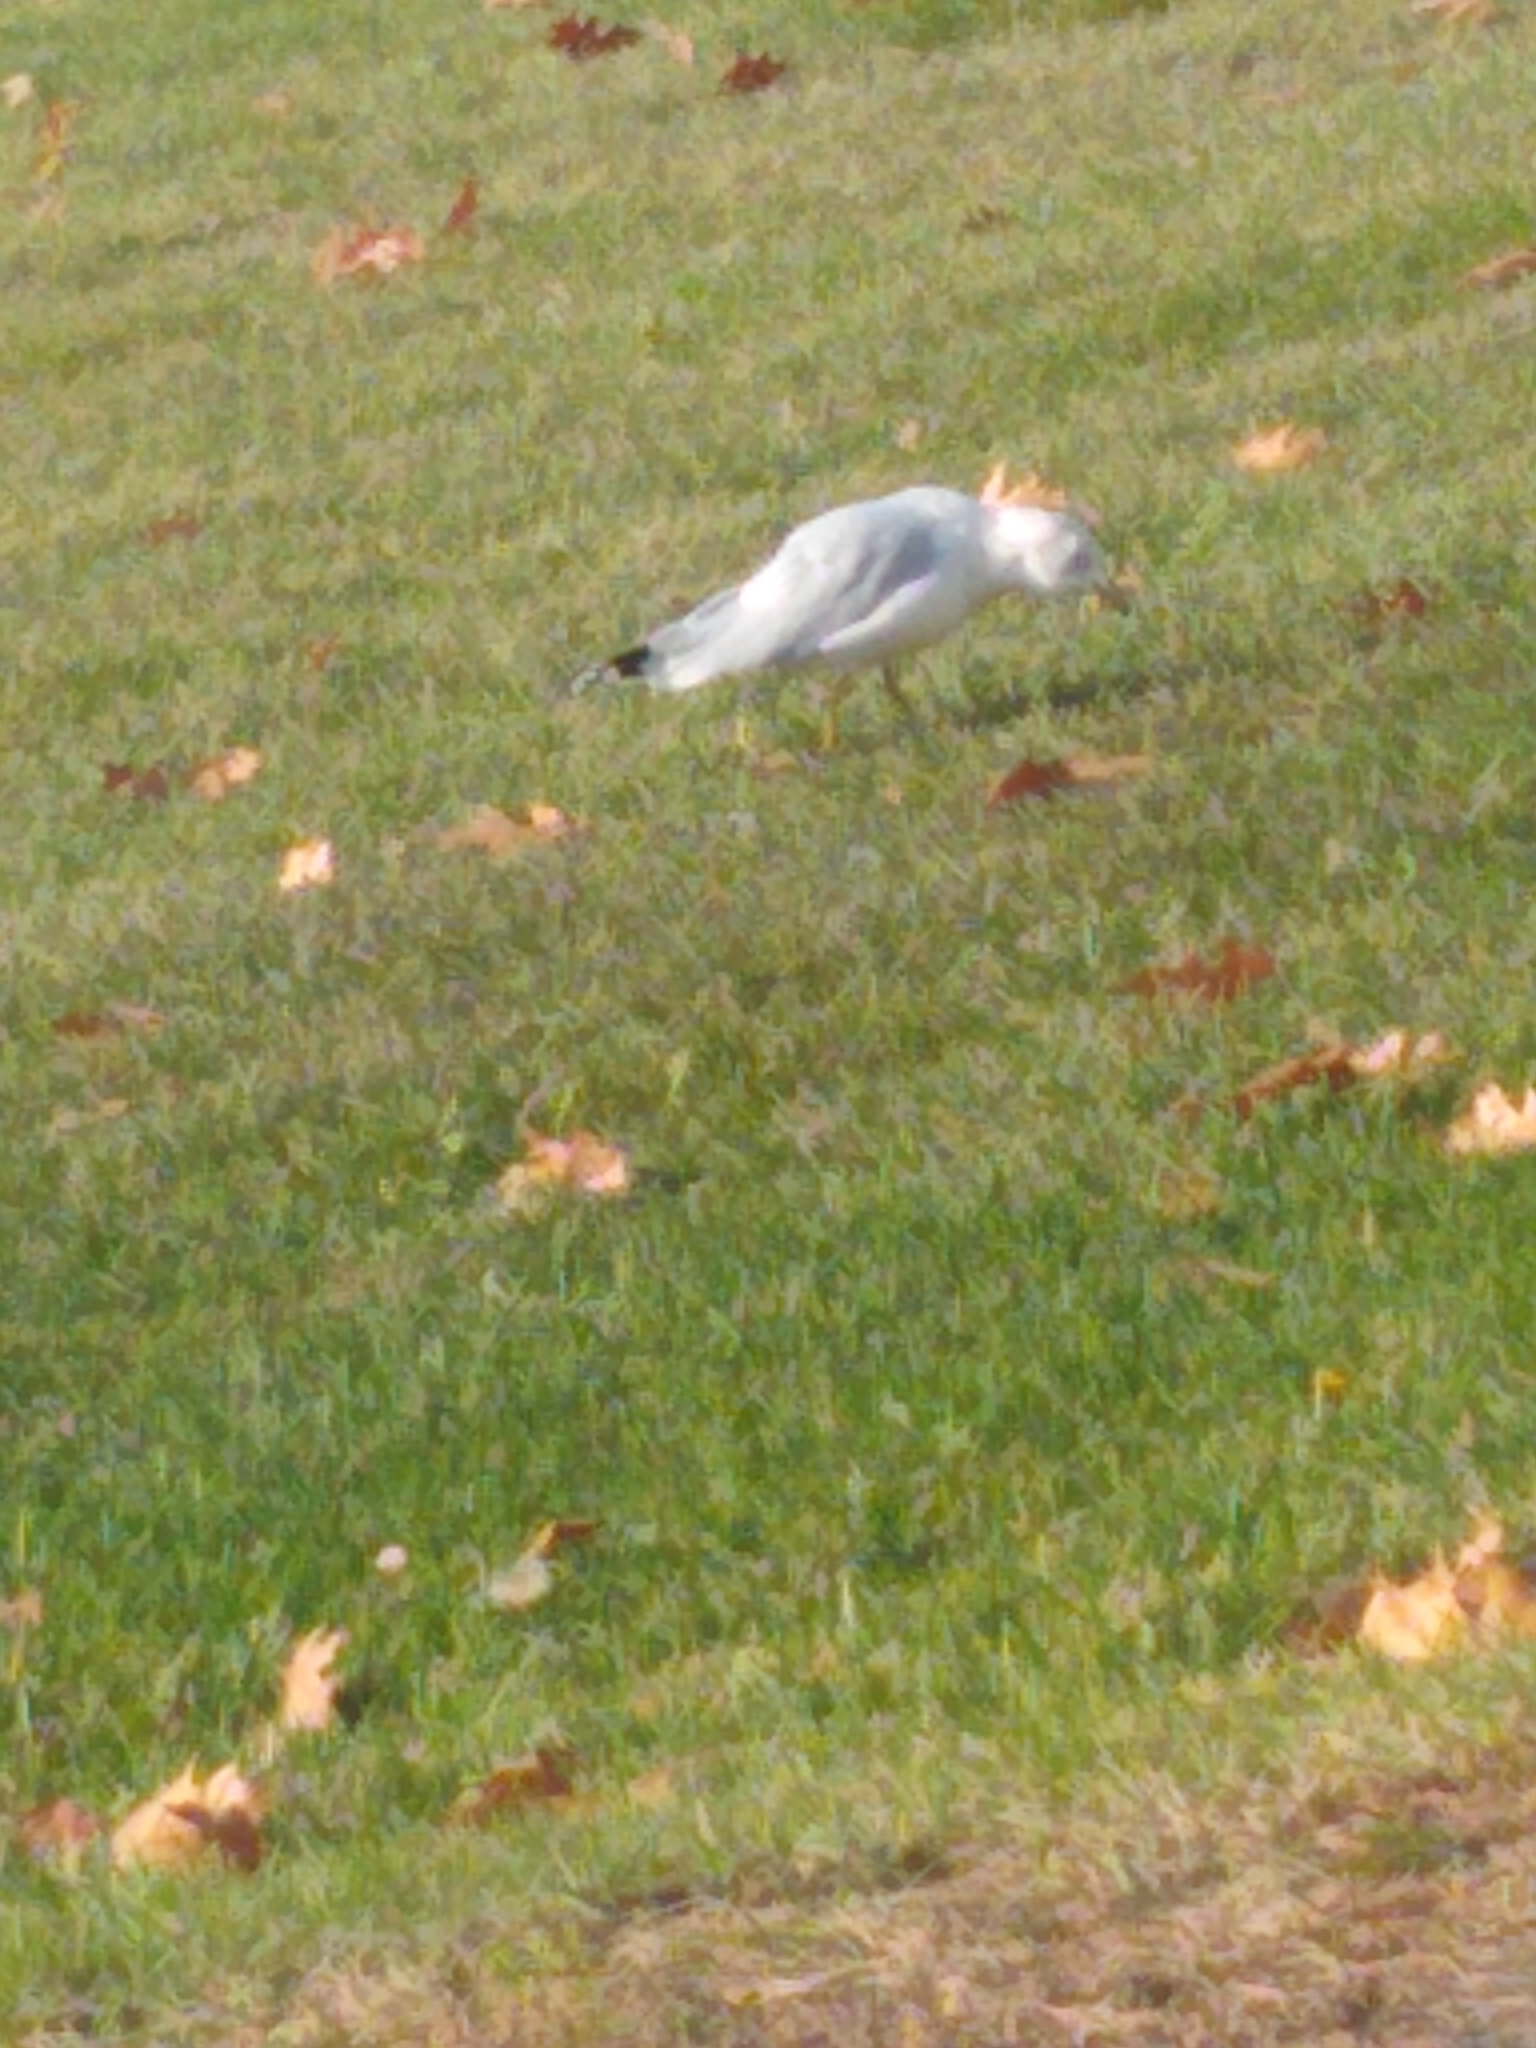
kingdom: Animalia
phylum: Chordata
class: Aves
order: Charadriiformes
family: Laridae
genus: Larus
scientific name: Larus delawarensis
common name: Ring-billed gull
